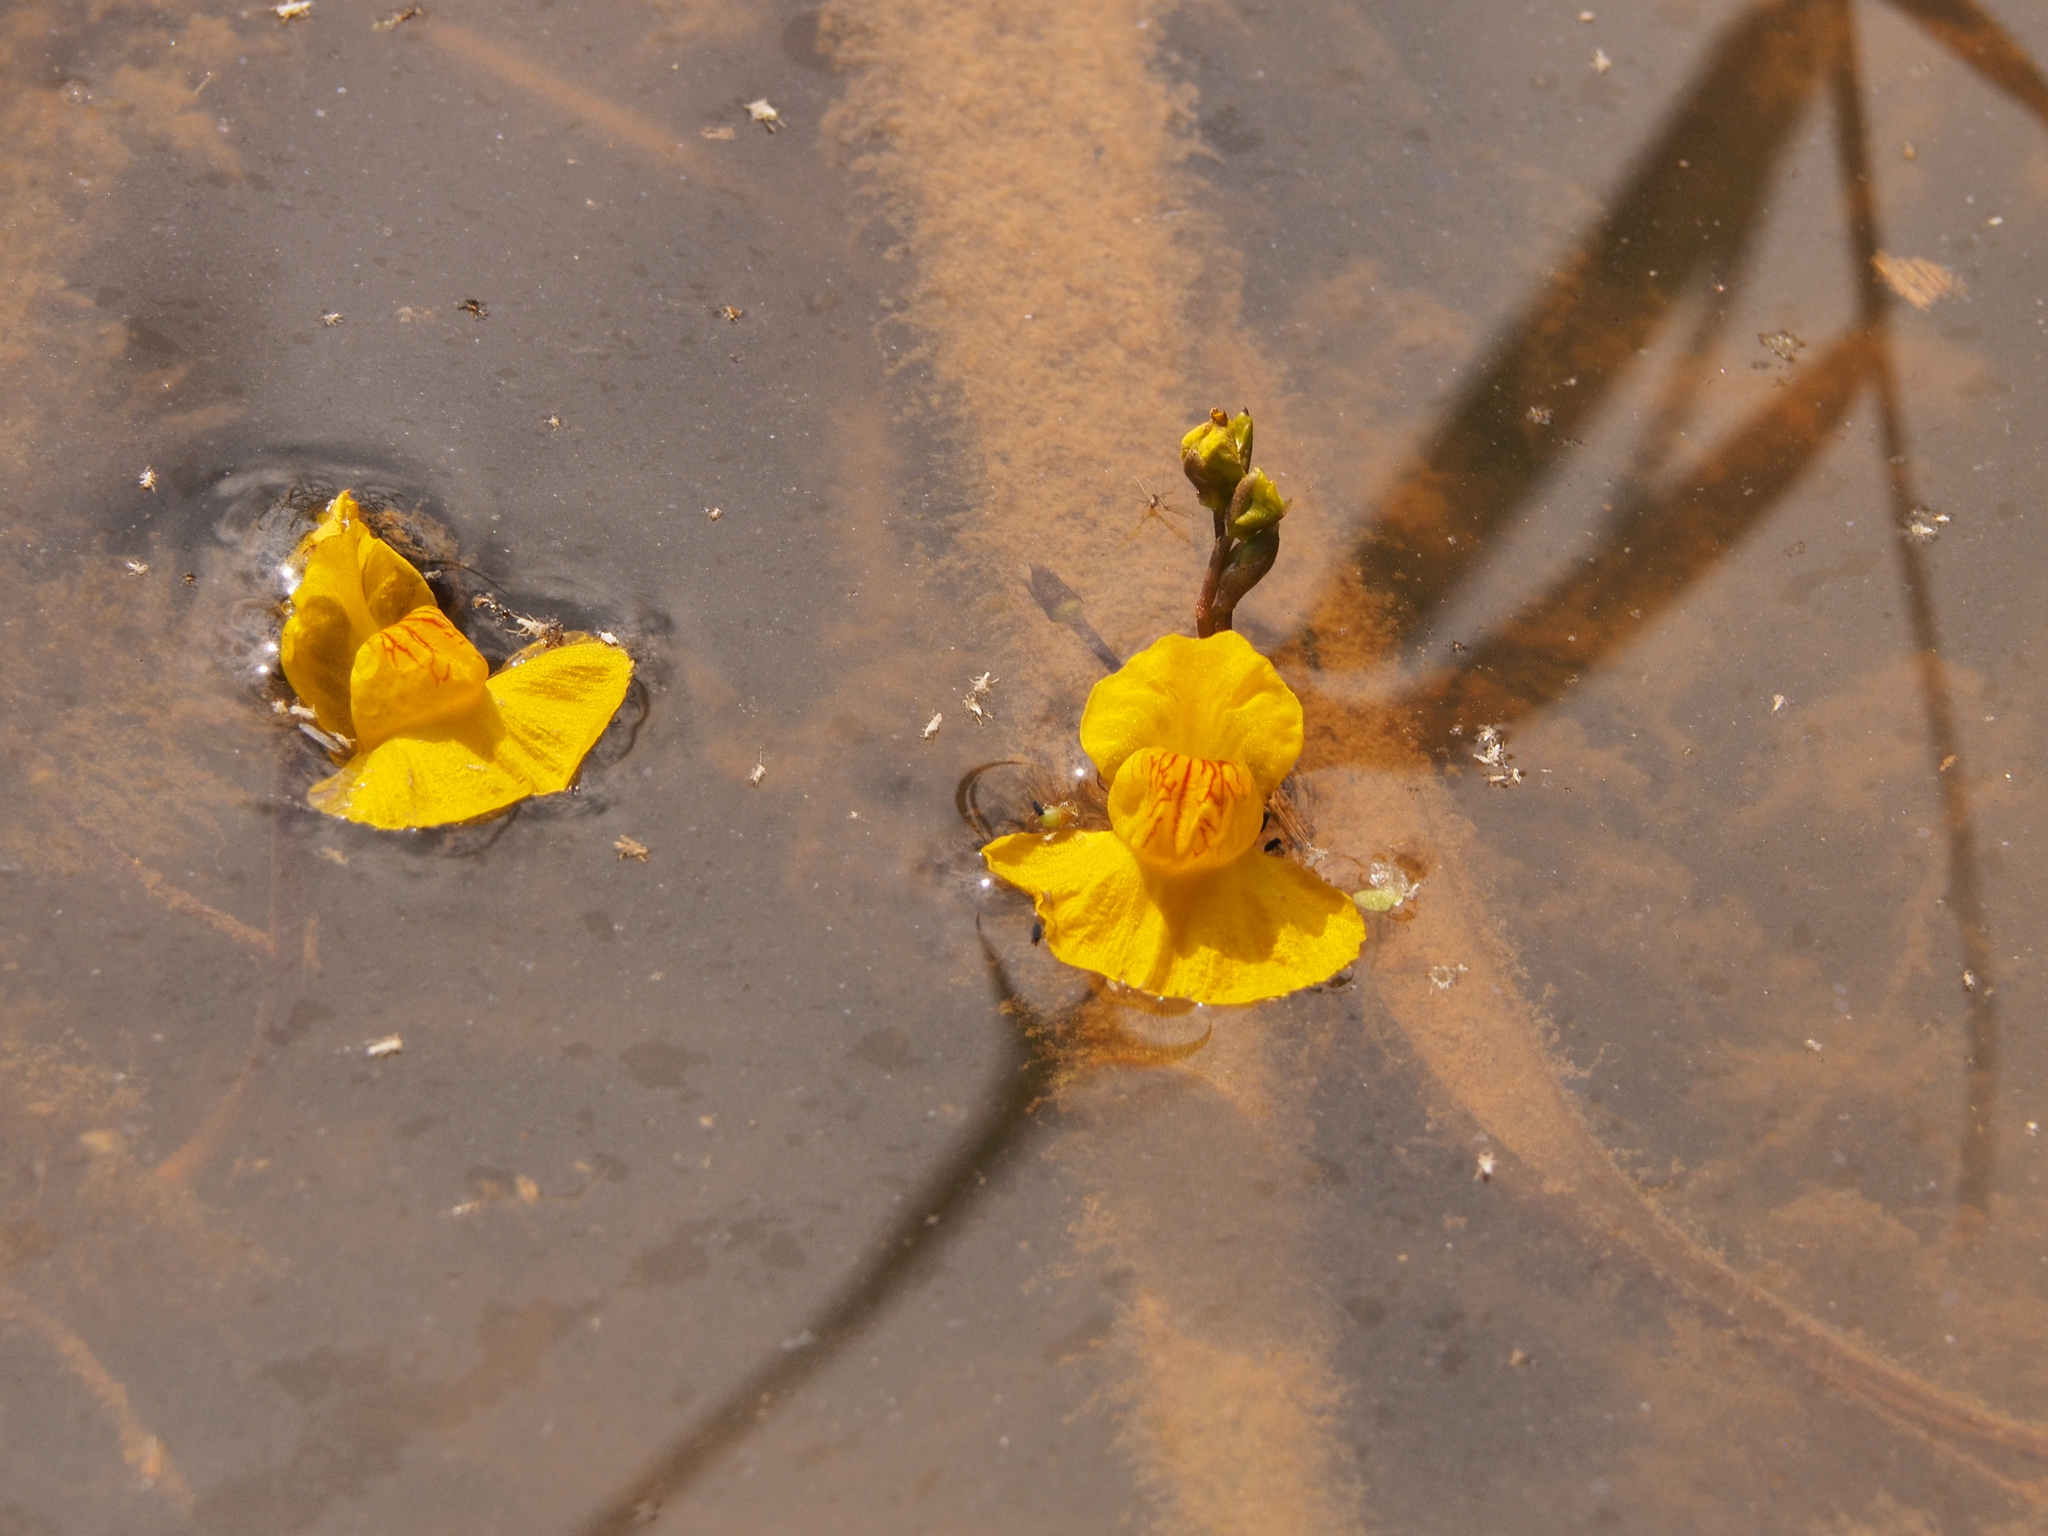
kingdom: Plantae
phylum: Tracheophyta
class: Magnoliopsida
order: Lamiales
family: Lentibulariaceae
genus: Utricularia
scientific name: Utricularia australis
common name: Bladderwort
